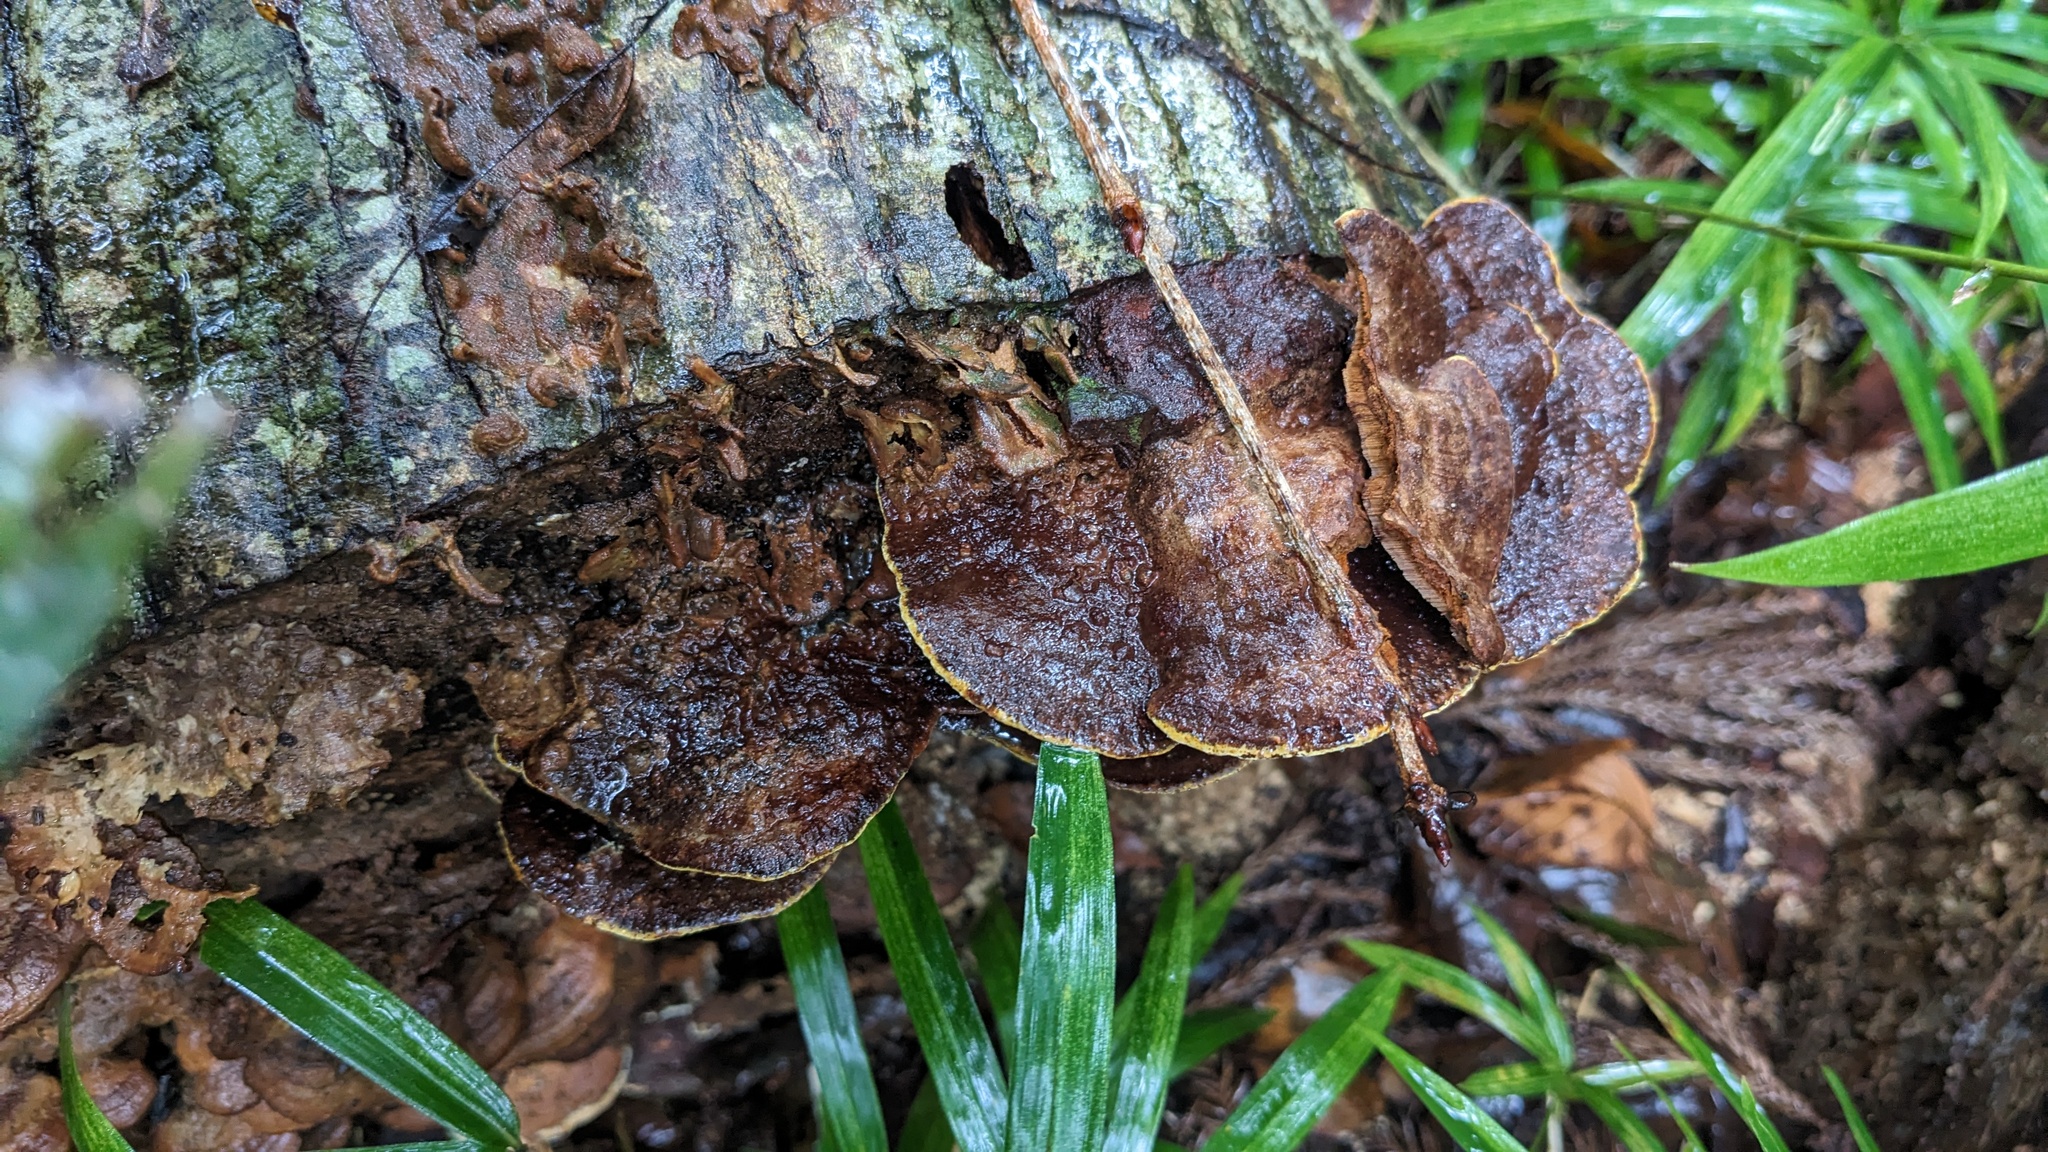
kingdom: Fungi
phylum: Basidiomycota
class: Agaricomycetes
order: Hymenochaetales
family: Hymenochaetaceae
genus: Phellinus
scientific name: Phellinus gilvus
